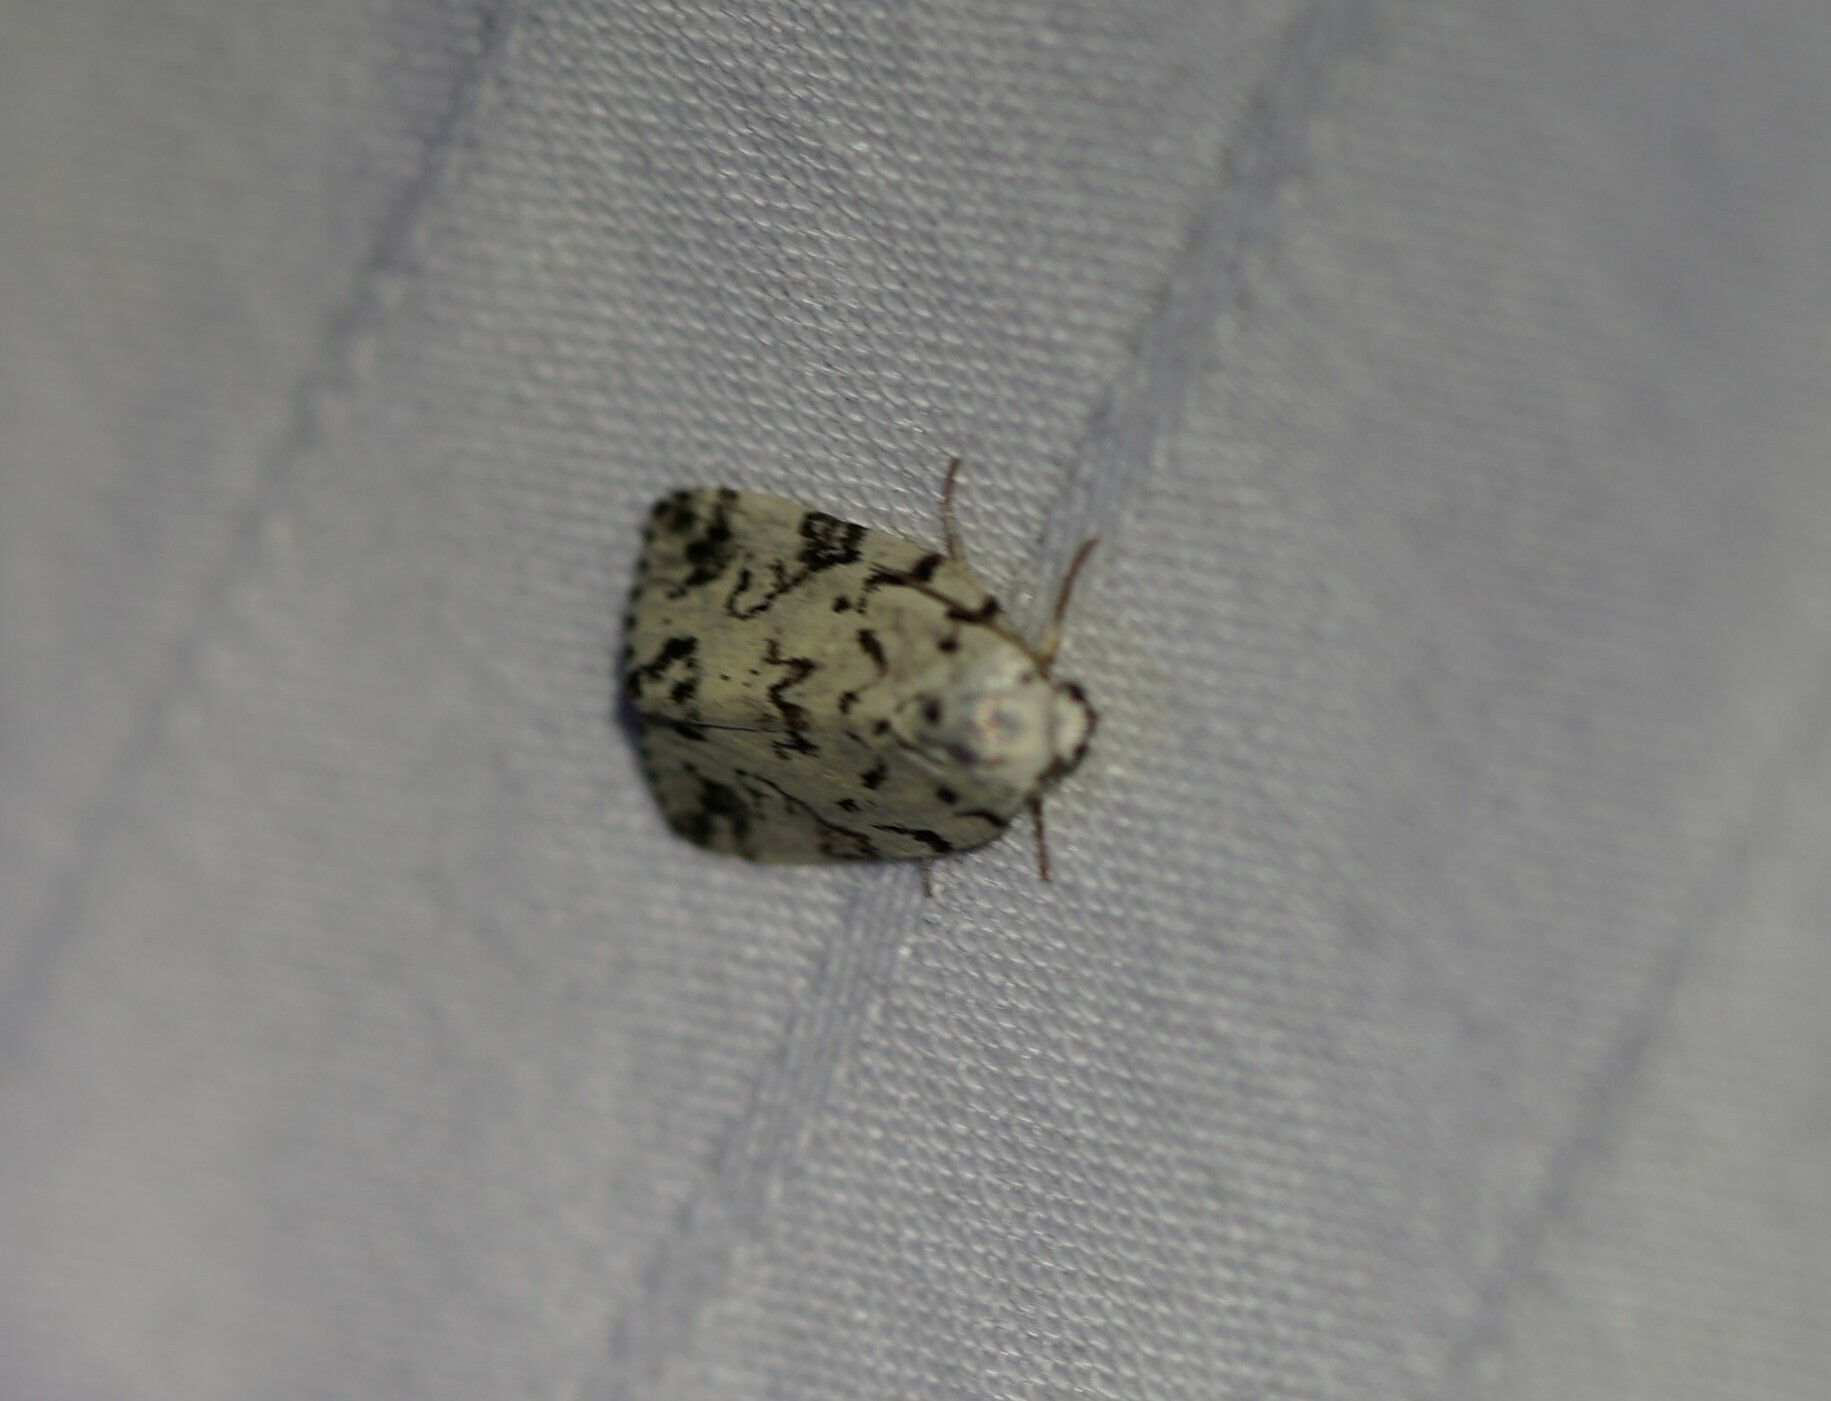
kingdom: Animalia
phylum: Arthropoda
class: Insecta
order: Lepidoptera
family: Noctuidae
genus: Polygrammate
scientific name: Polygrammate hebraeicum
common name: Hebrew moth
